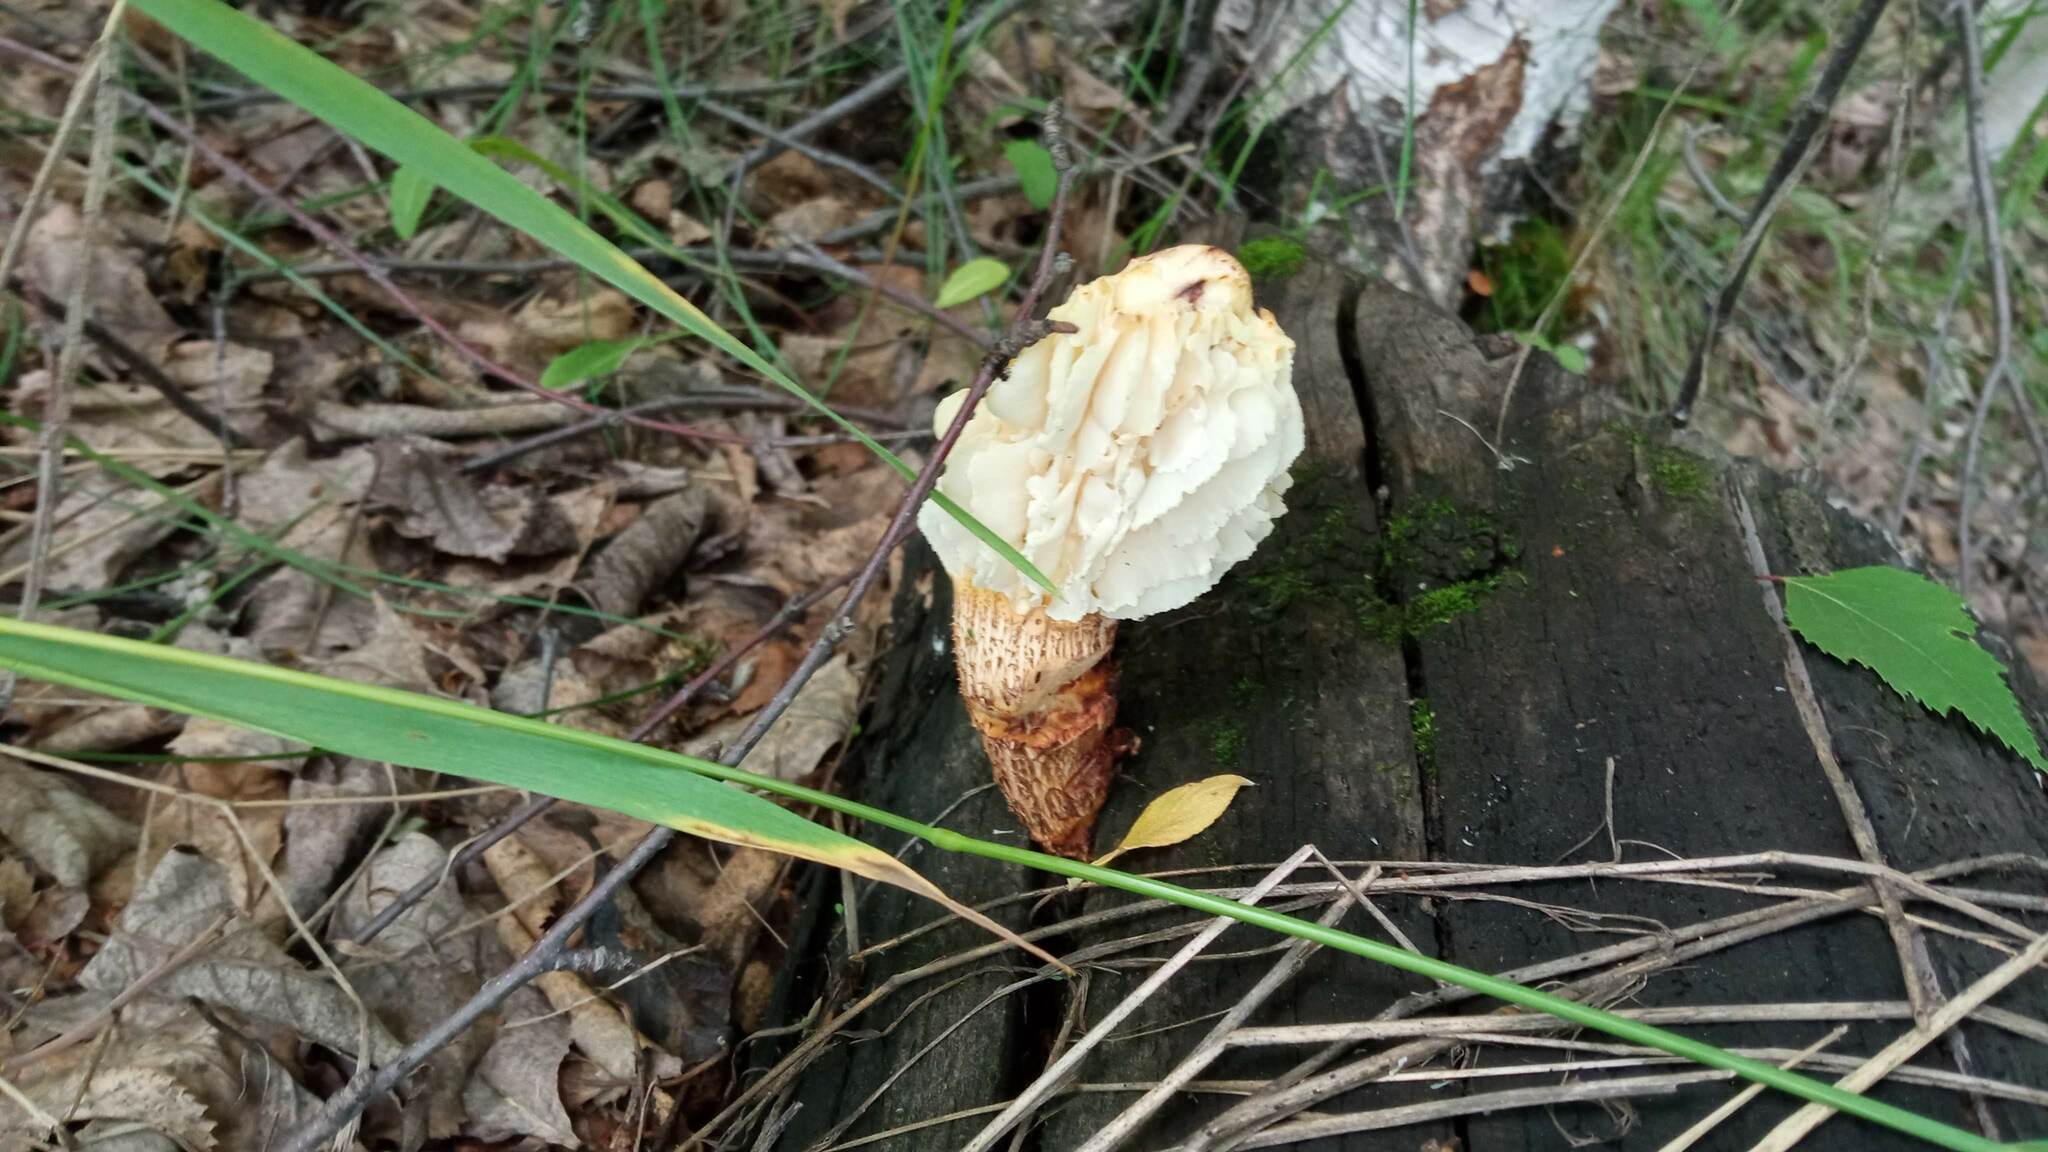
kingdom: Fungi
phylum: Basidiomycota
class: Agaricomycetes
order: Gloeophyllales
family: Gloeophyllaceae
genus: Neolentinus
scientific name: Neolentinus lepideus
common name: Scaly sawgill
